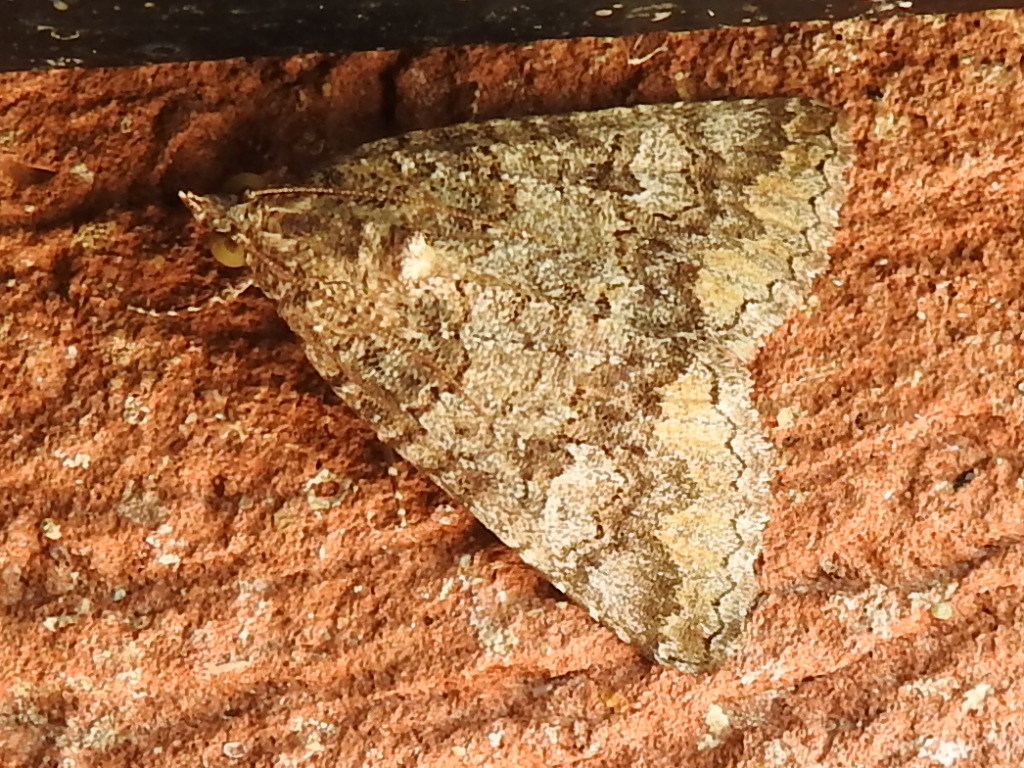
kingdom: Animalia
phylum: Arthropoda
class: Insecta
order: Lepidoptera
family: Erebidae
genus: Eubolina
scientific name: Eubolina impartialis
